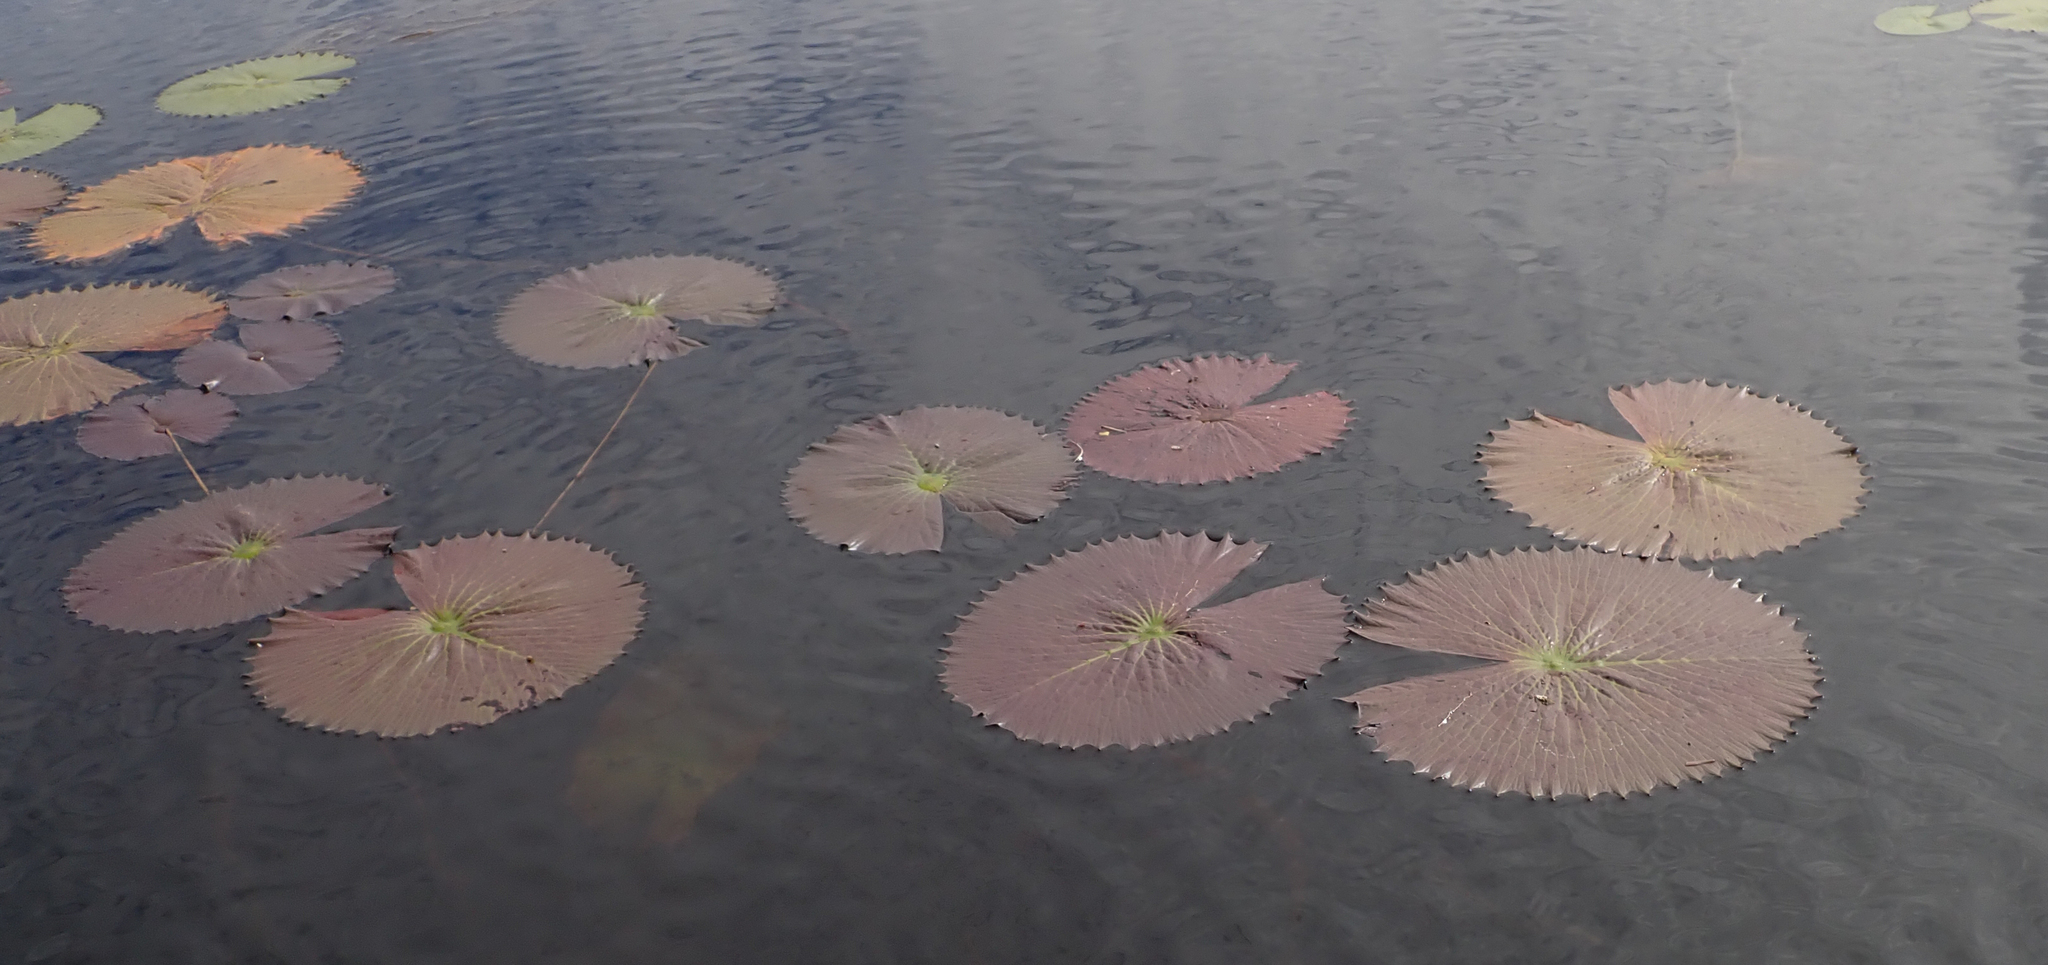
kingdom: Plantae
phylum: Tracheophyta
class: Magnoliopsida
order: Nymphaeales
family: Nymphaeaceae
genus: Nymphaea
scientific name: Nymphaea lotus
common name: White egyptian lotus
